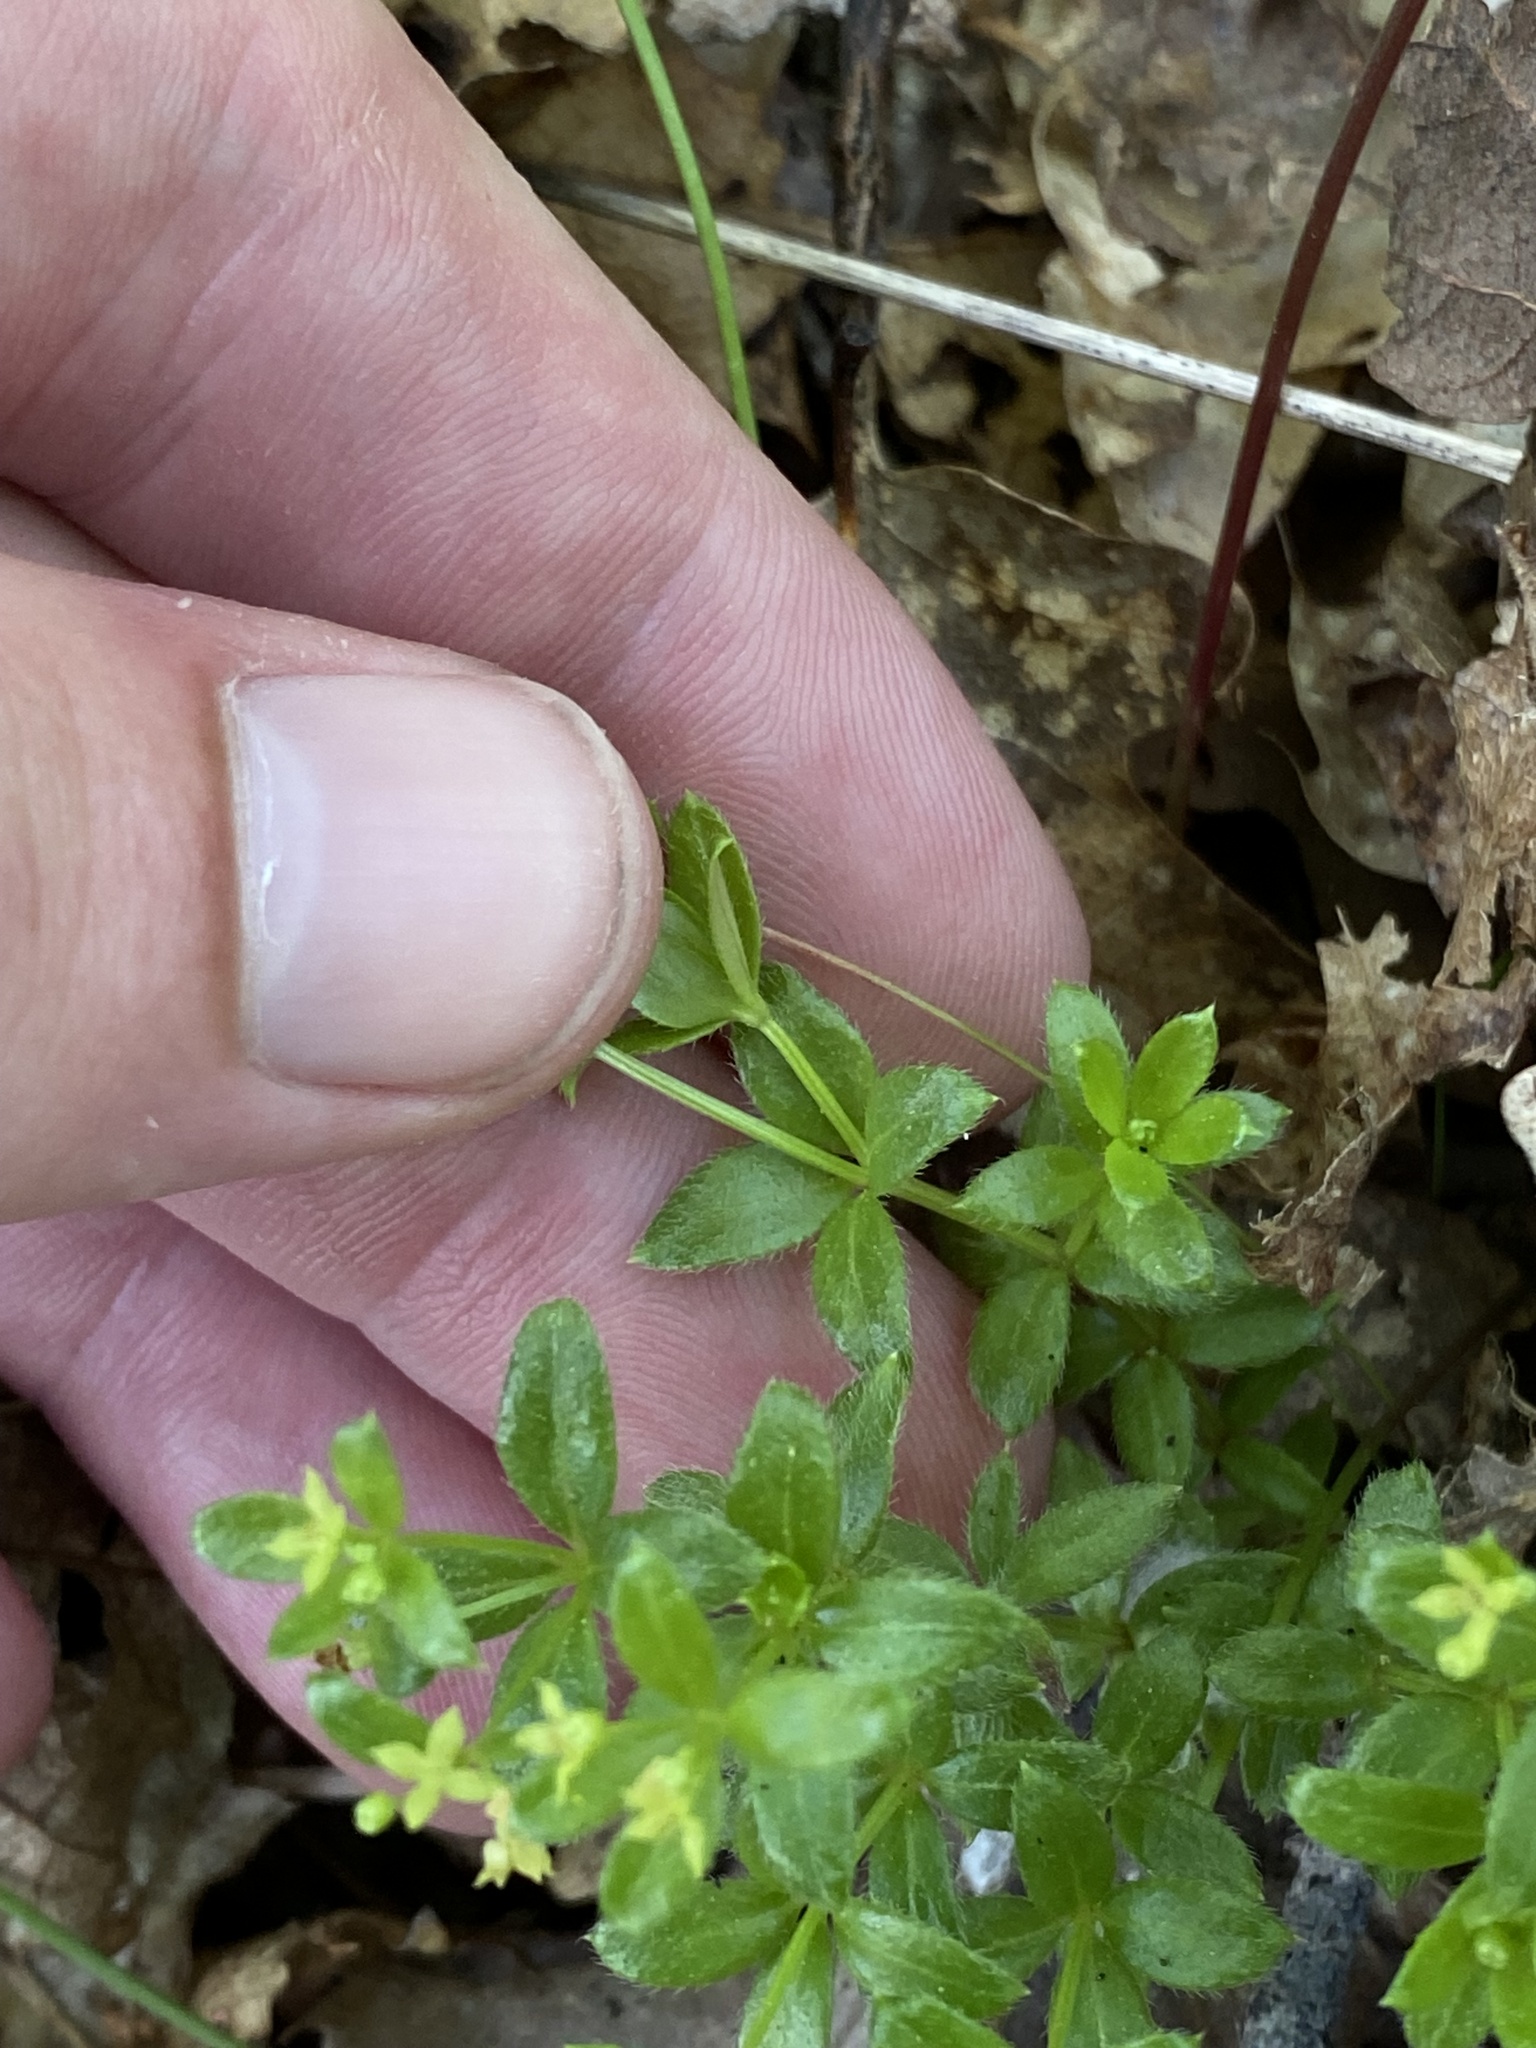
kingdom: Plantae
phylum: Tracheophyta
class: Magnoliopsida
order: Gentianales
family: Rubiaceae
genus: Galium
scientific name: Galium muricatum
